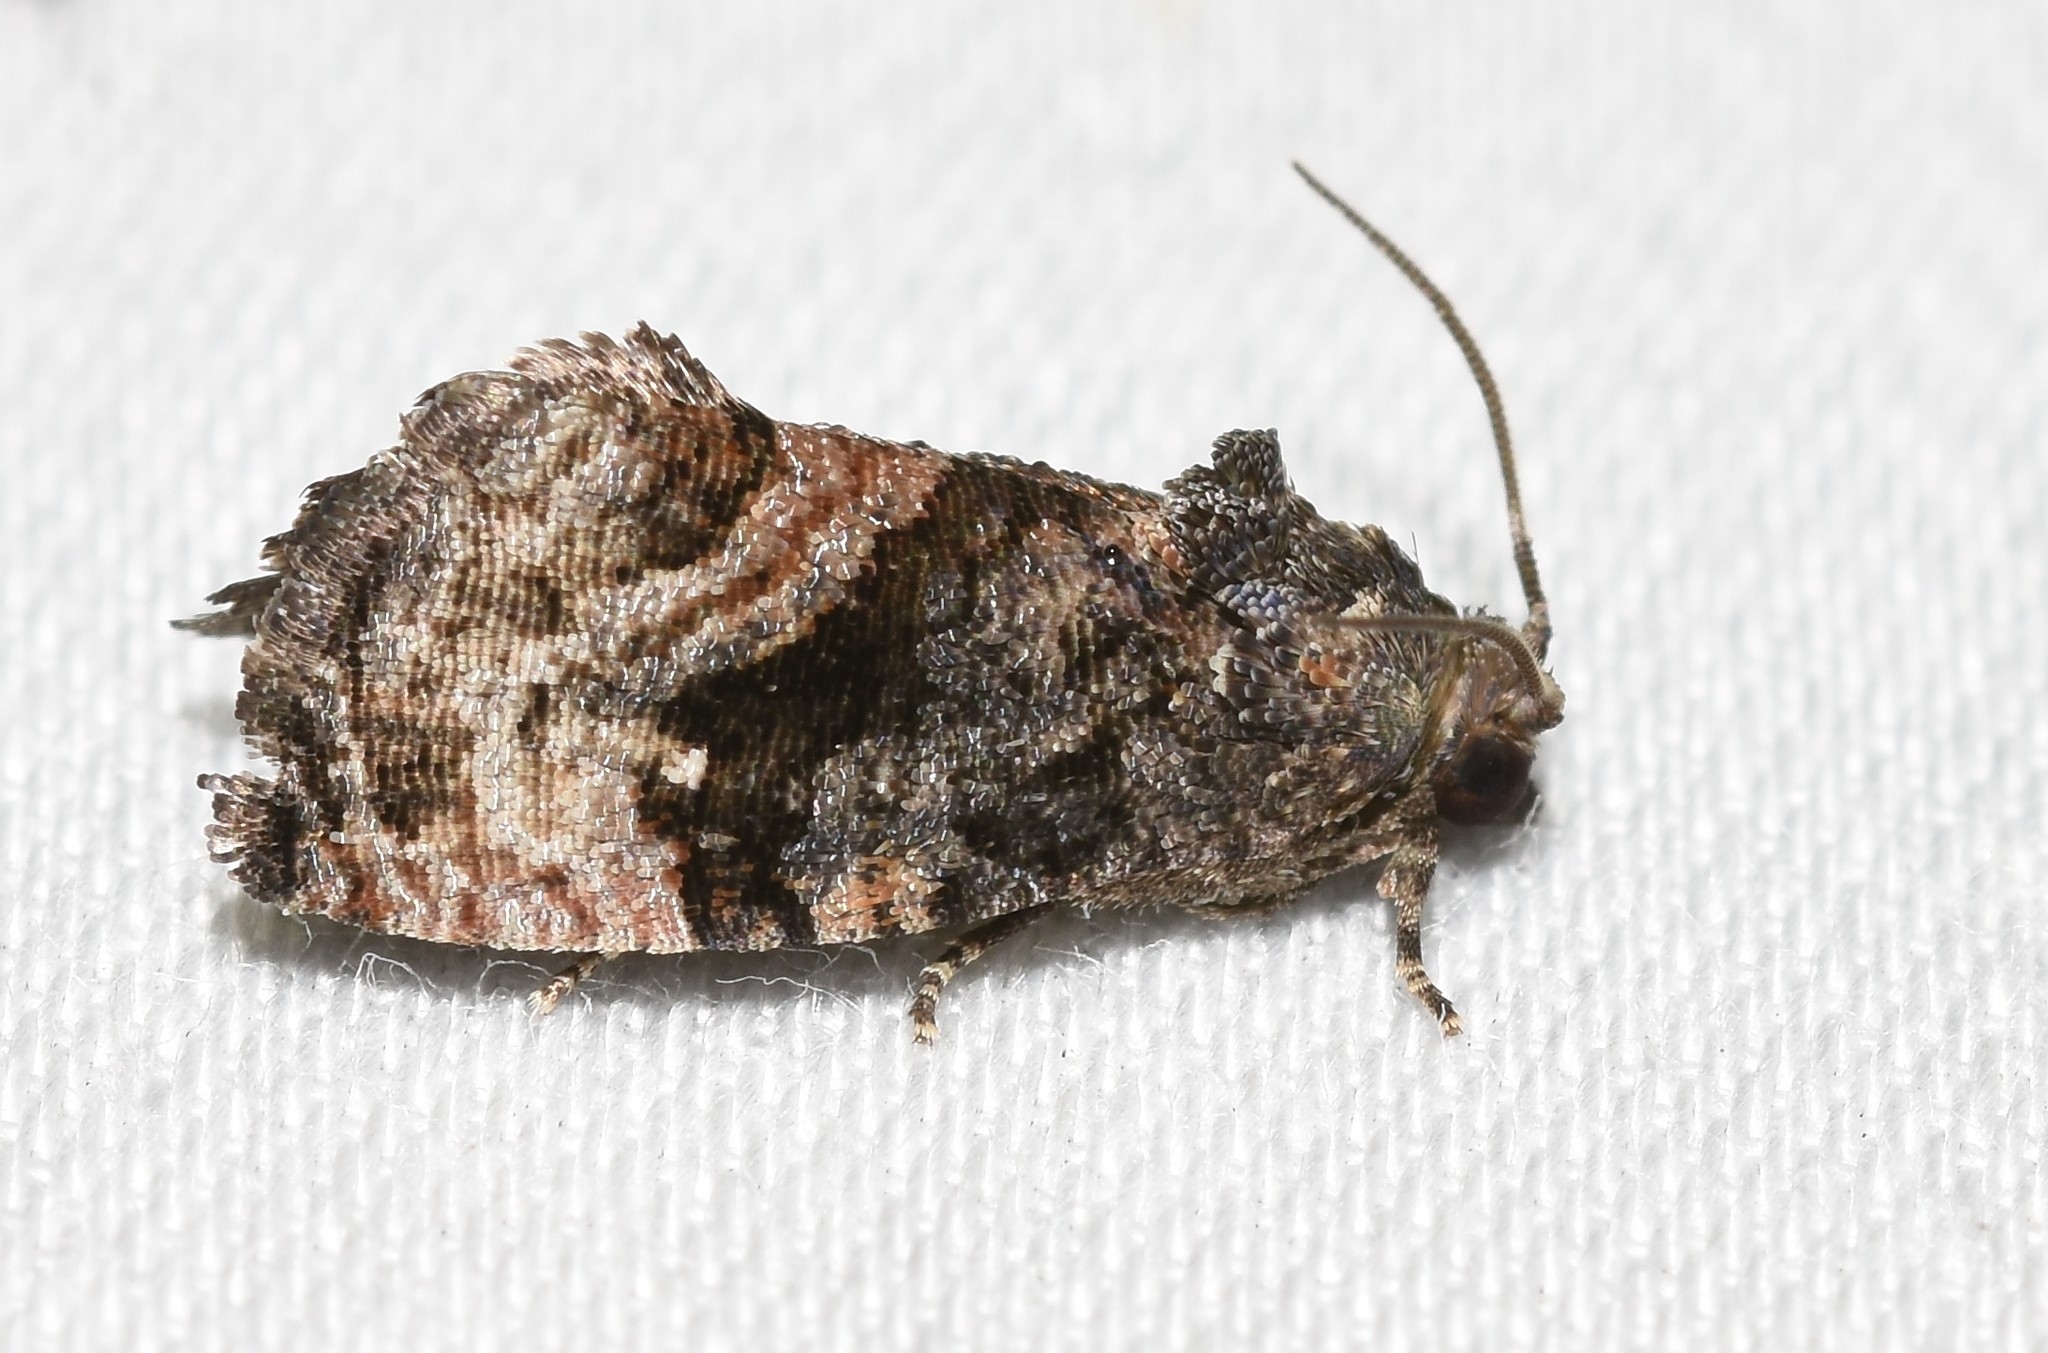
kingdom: Animalia
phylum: Arthropoda
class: Insecta
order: Lepidoptera
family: Tortricidae
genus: Gymnandrosoma
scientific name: Gymnandrosoma punctidiscanum
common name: Dotted ecdytolopha moth
